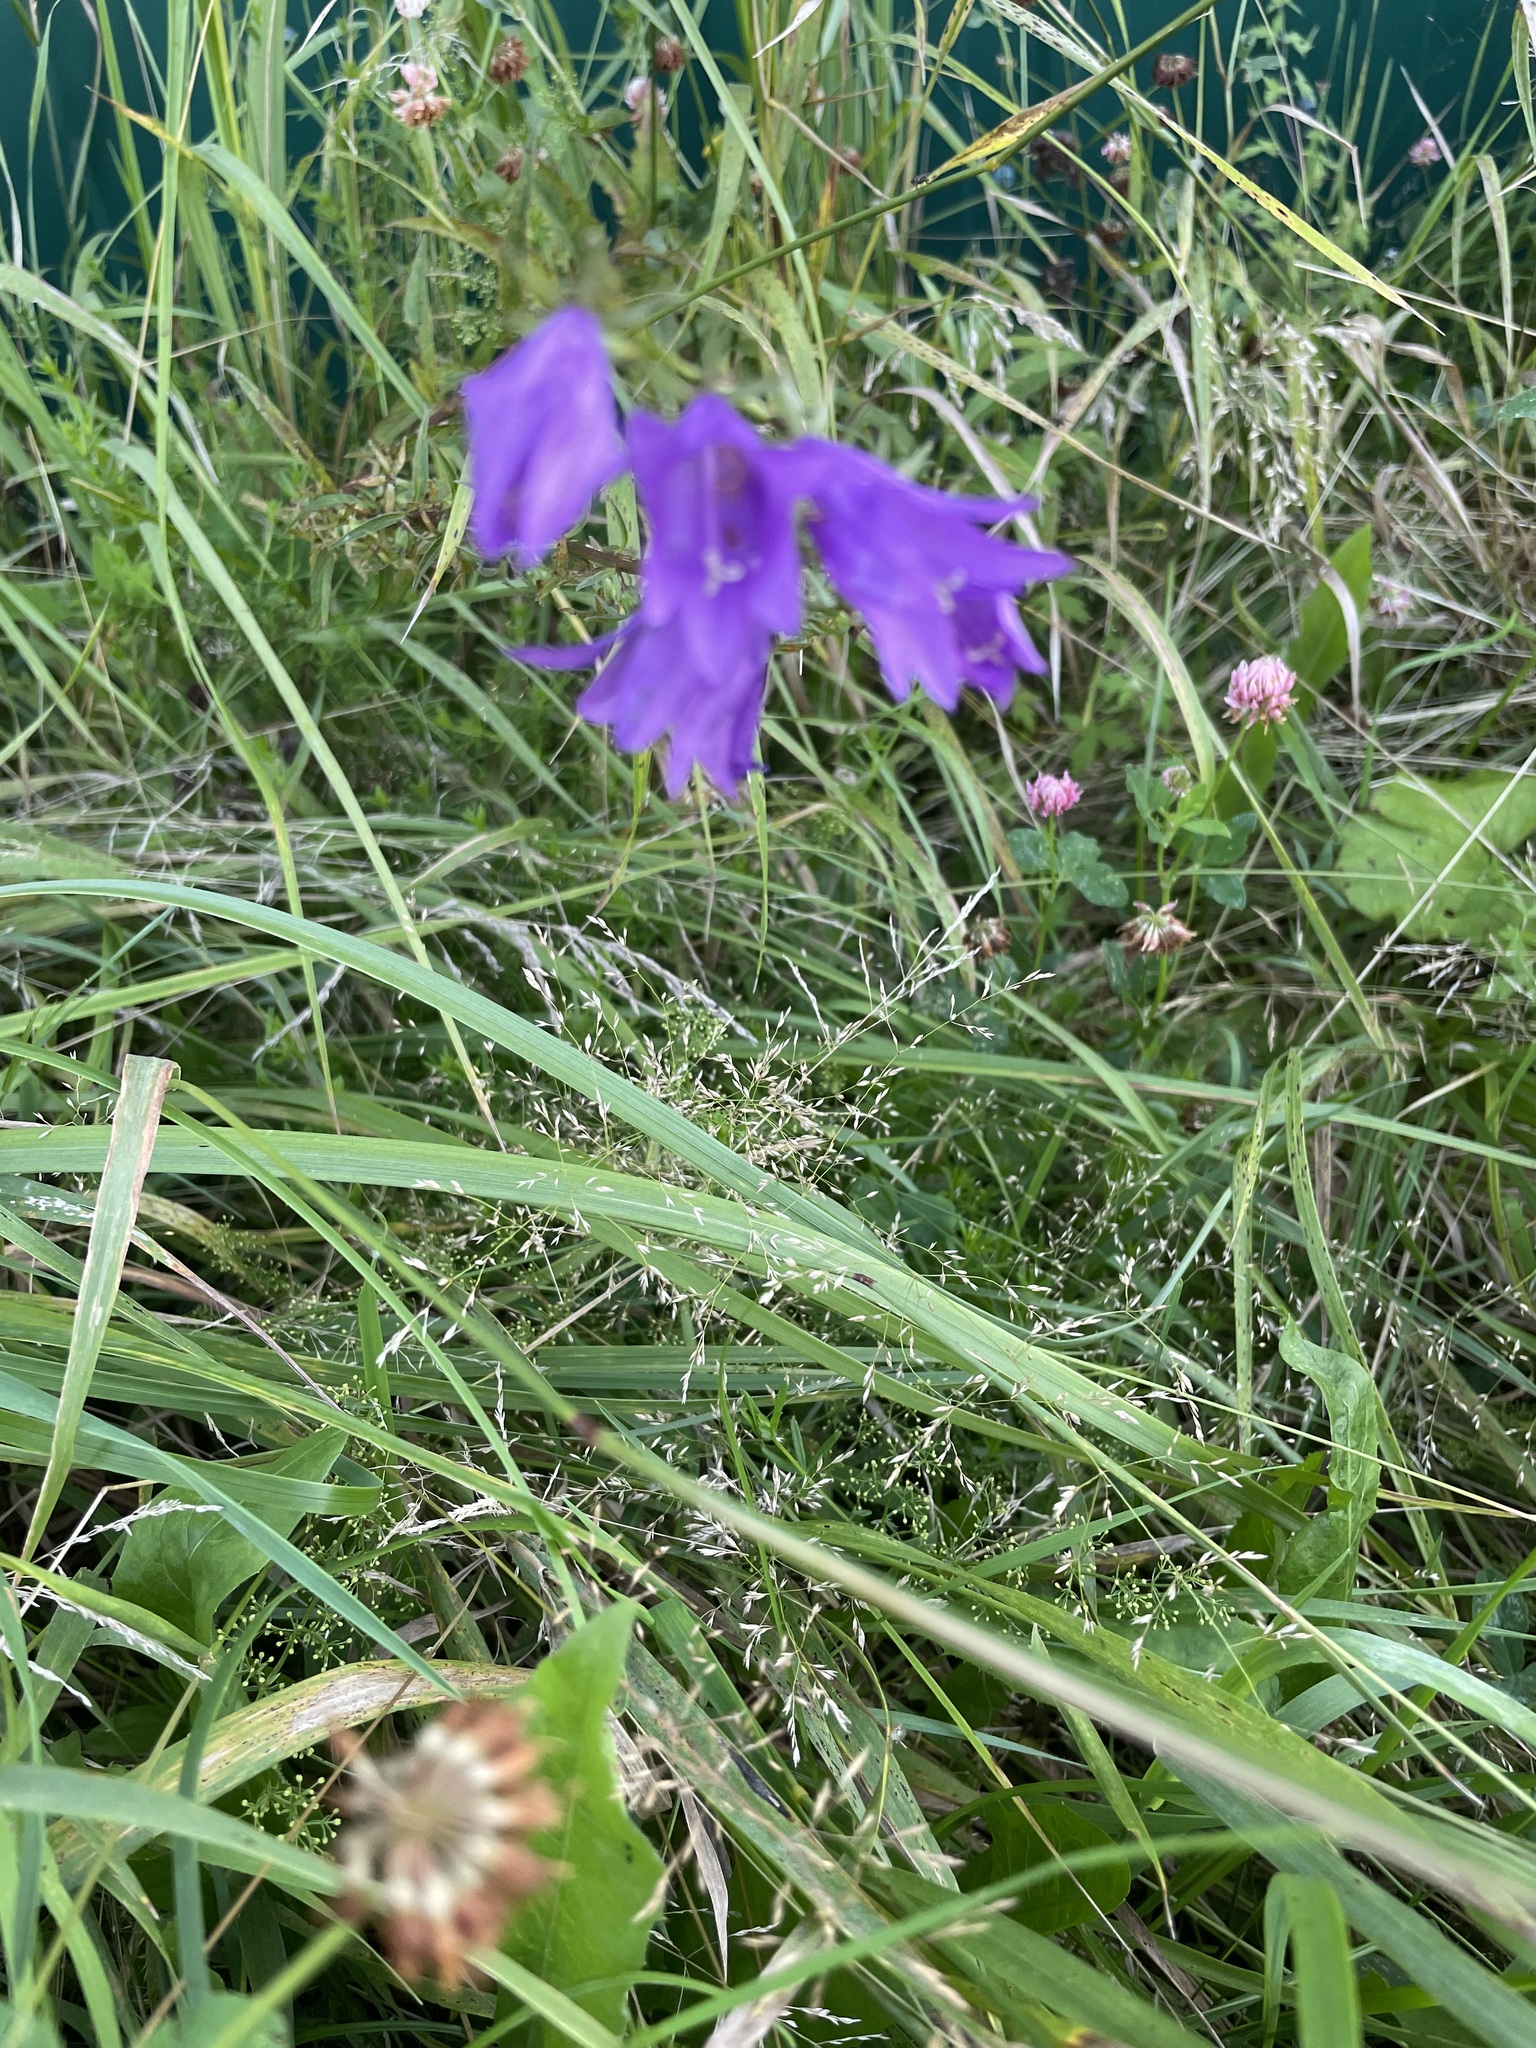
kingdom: Plantae
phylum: Tracheophyta
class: Magnoliopsida
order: Asterales
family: Campanulaceae
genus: Campanula
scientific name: Campanula rapunculoides
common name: Creeping bellflower
